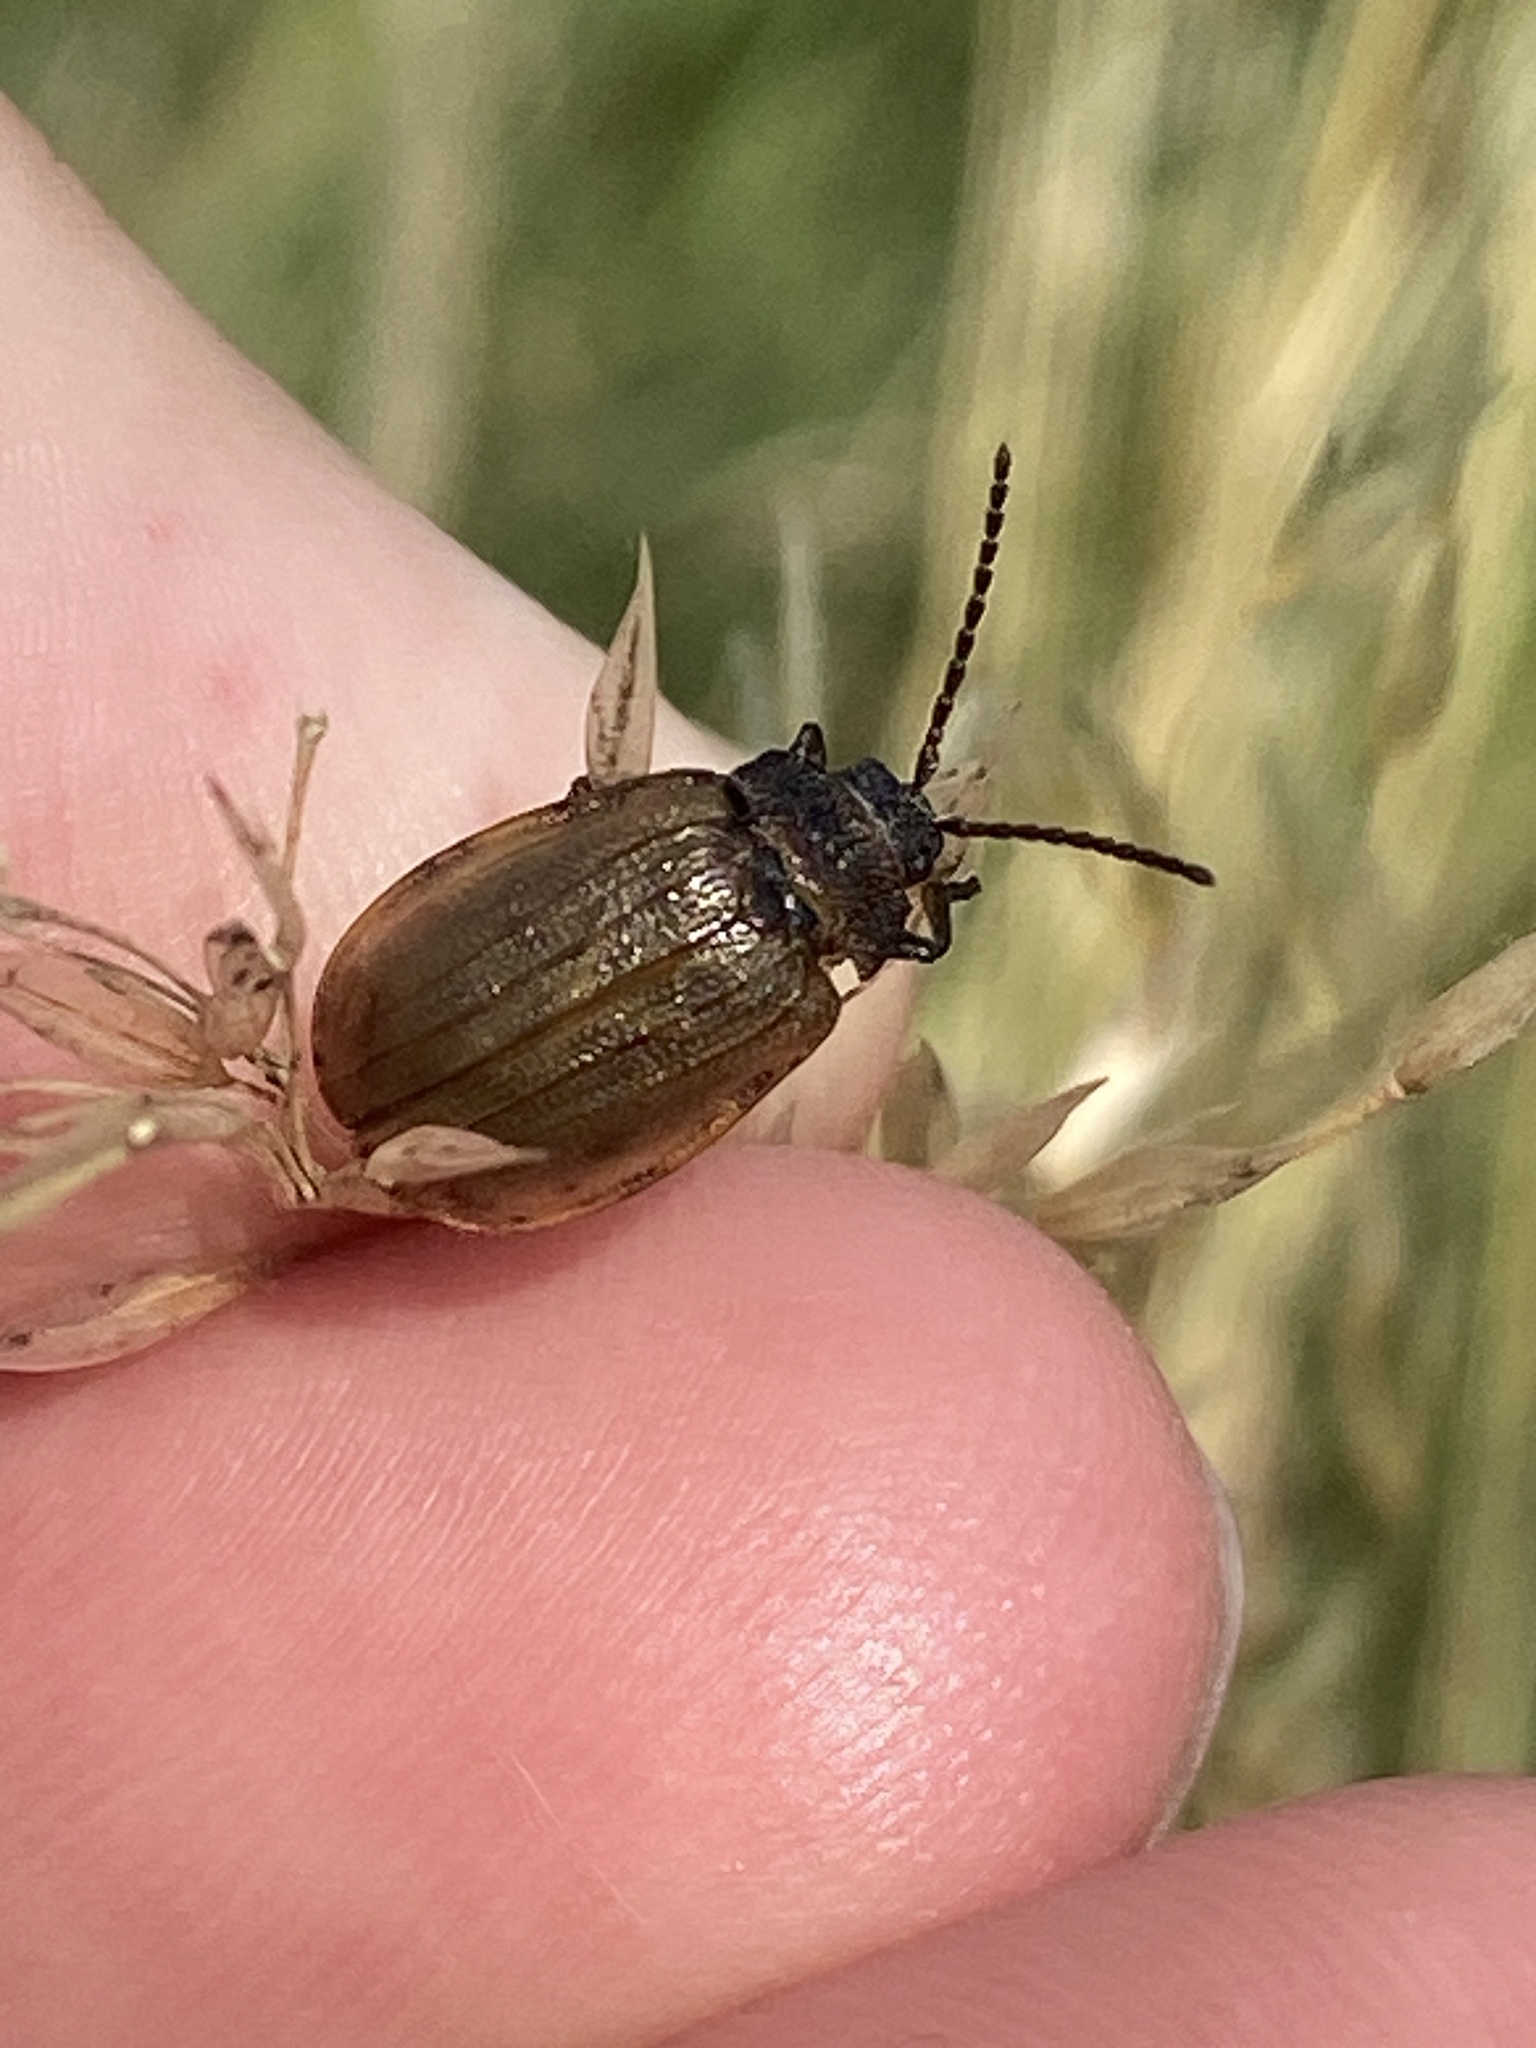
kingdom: Animalia
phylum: Arthropoda
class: Insecta
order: Coleoptera
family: Chrysomelidae
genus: Galeruca
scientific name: Galeruca pomonae
